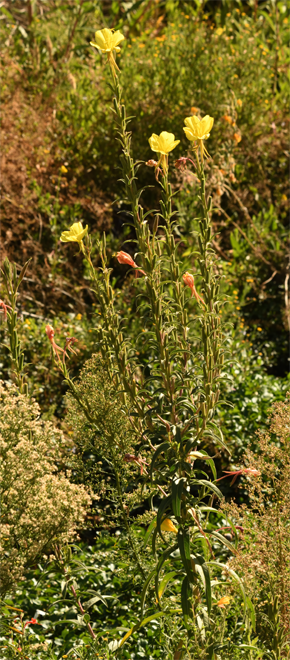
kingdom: Plantae
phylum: Tracheophyta
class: Magnoliopsida
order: Myrtales
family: Onagraceae
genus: Oenothera
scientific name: Oenothera elata
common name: Hooker's evening-primrose
